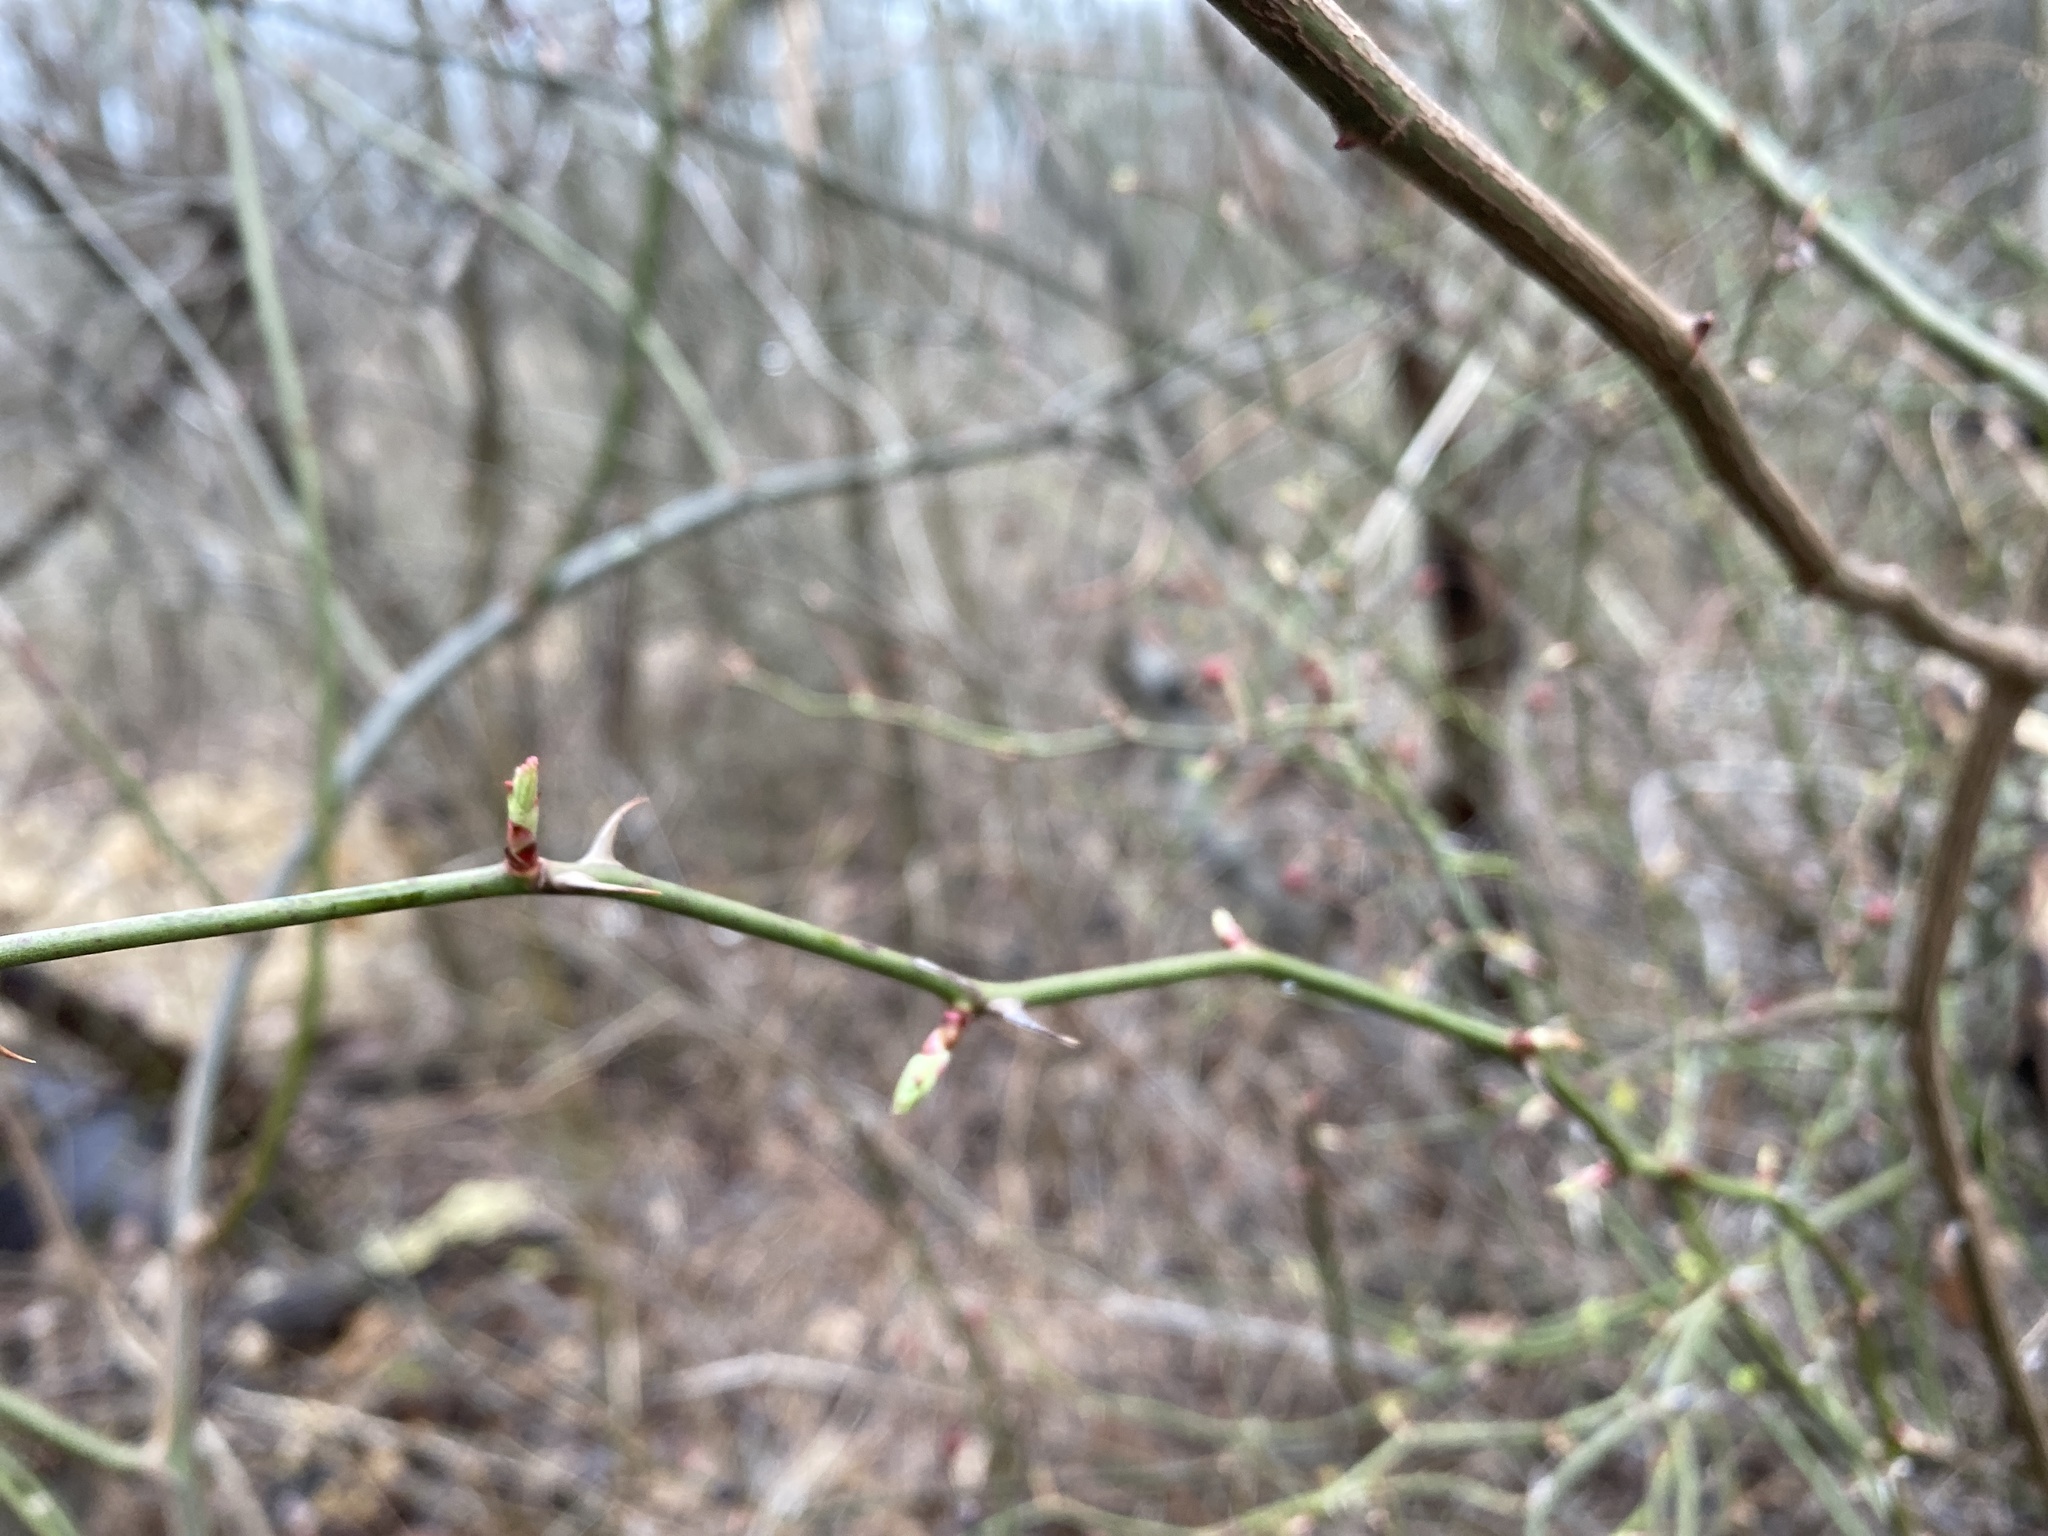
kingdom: Plantae
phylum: Tracheophyta
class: Magnoliopsida
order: Rosales
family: Rosaceae
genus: Rosa
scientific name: Rosa multiflora
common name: Multiflora rose
